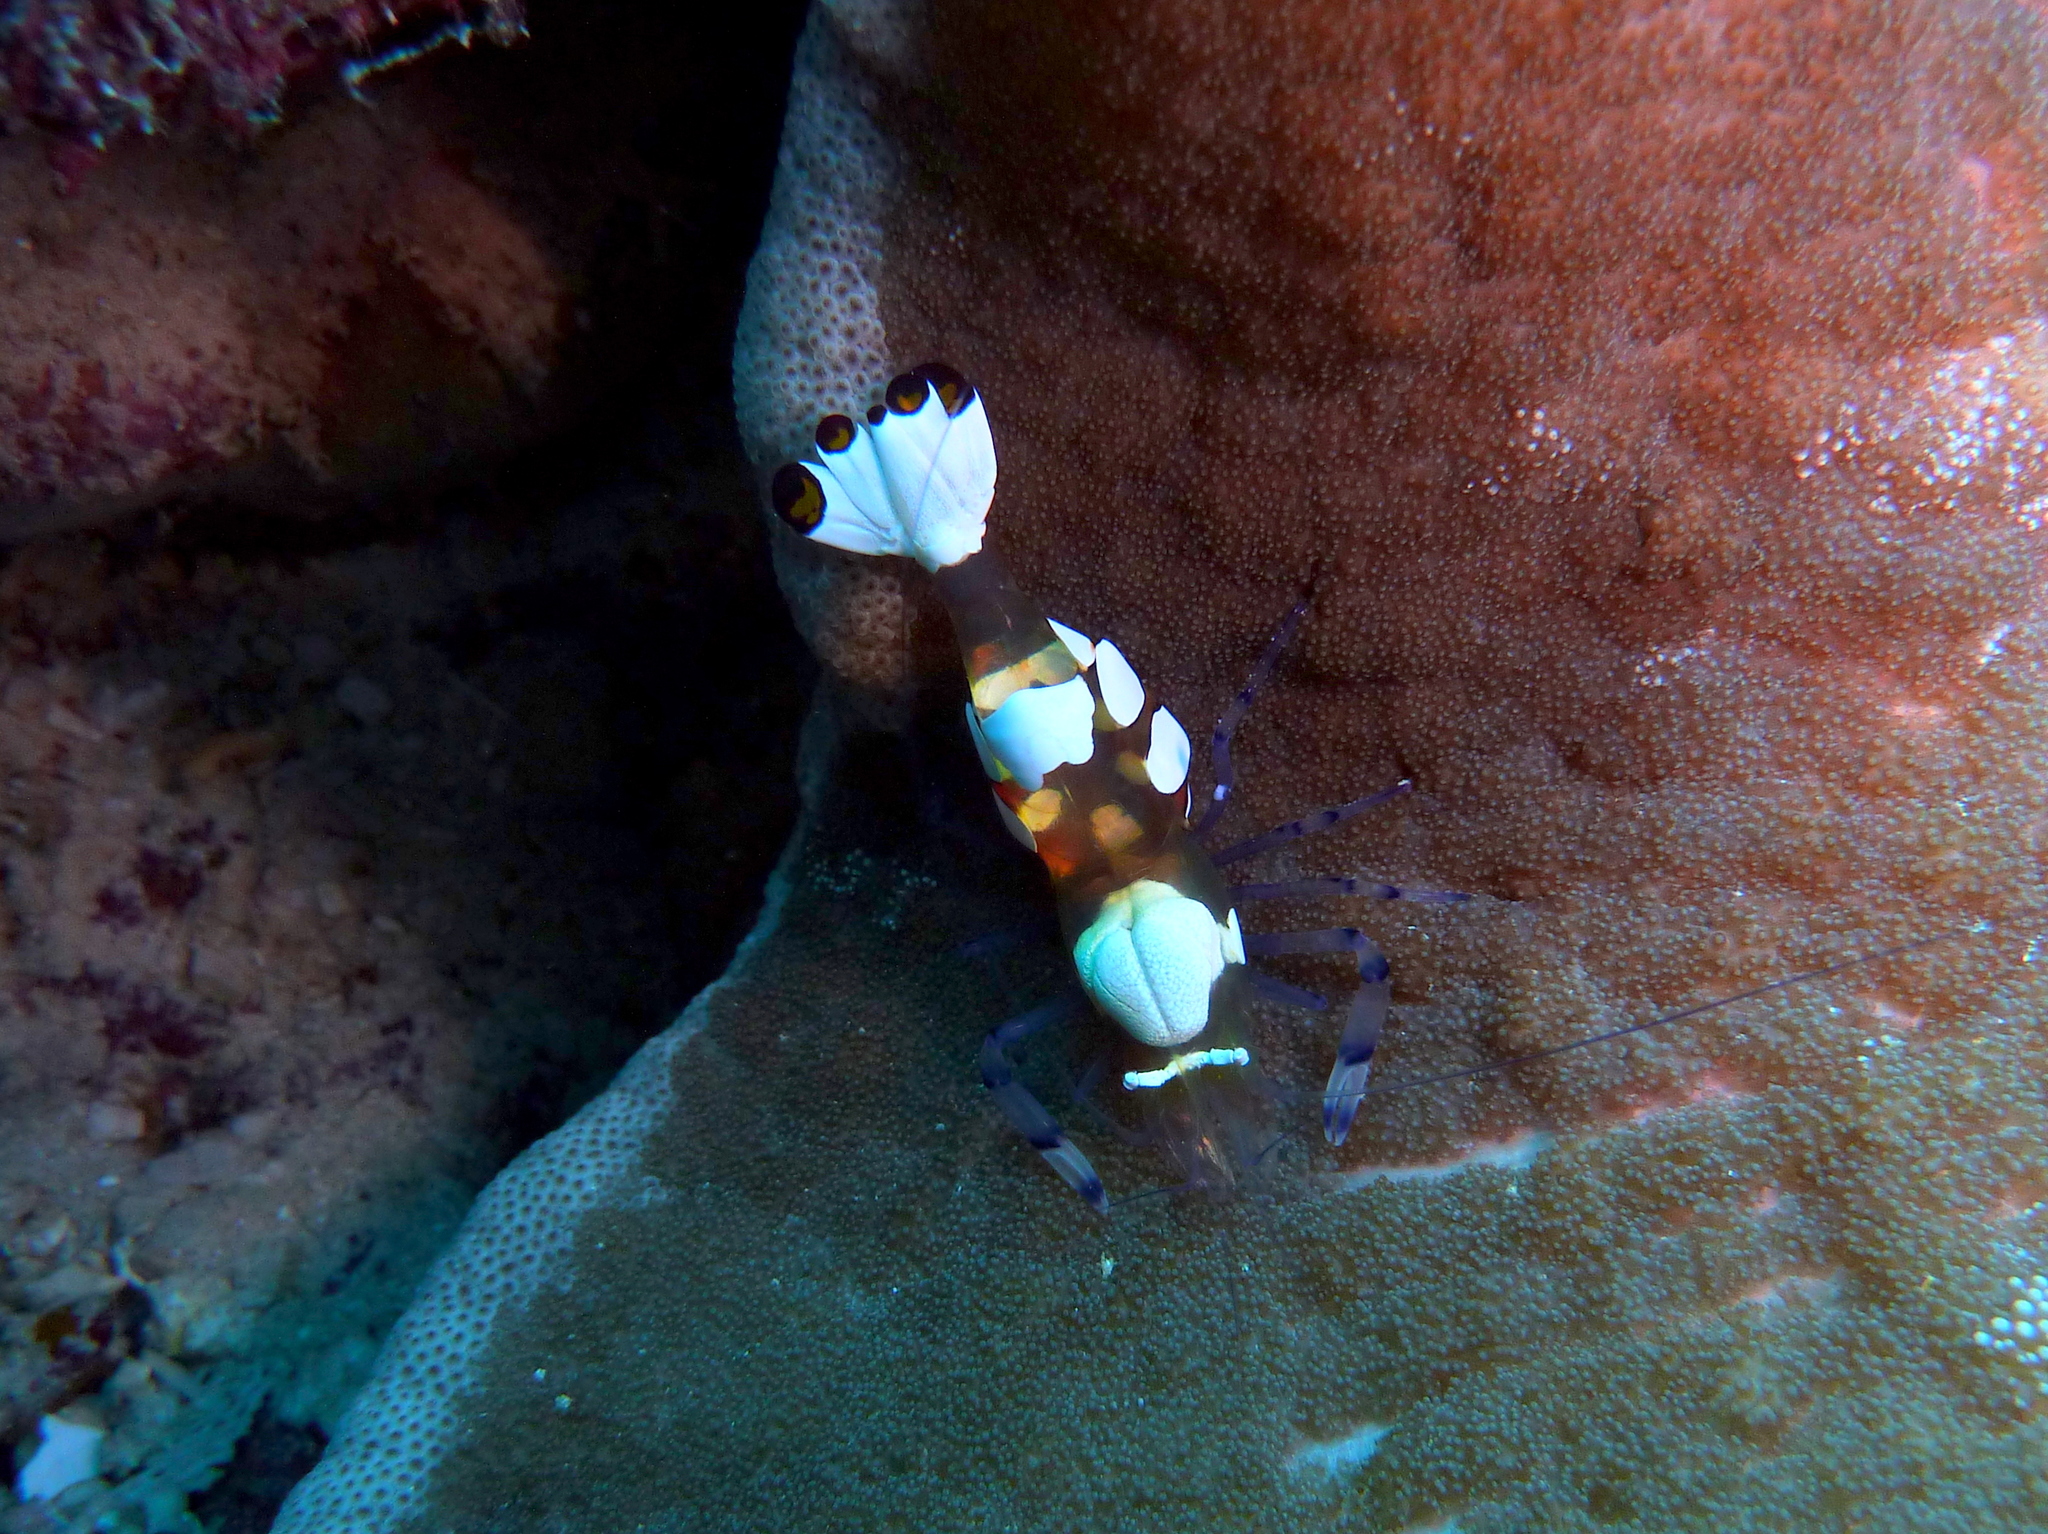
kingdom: Animalia
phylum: Arthropoda
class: Malacostraca
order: Decapoda
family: Palaemonidae
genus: Ancylocaris
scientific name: Ancylocaris brevicarpalis
